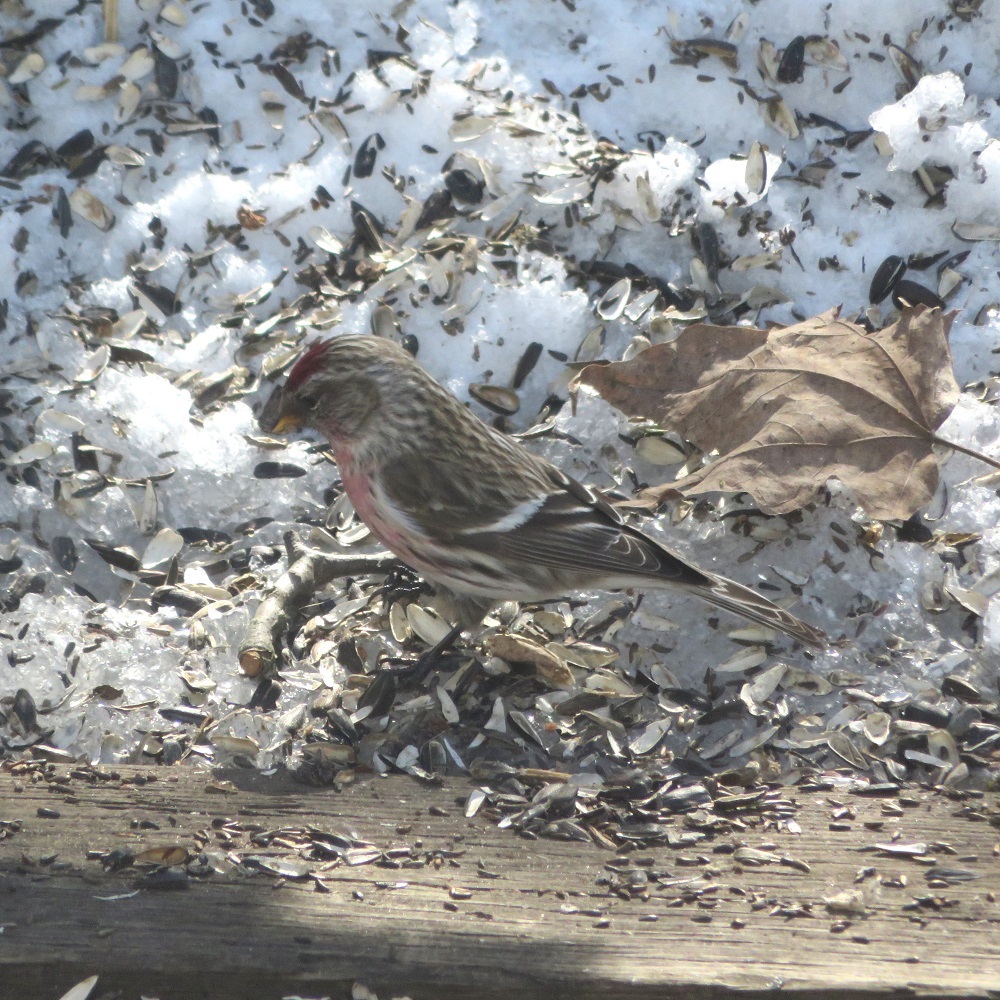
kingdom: Animalia
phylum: Chordata
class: Aves
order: Passeriformes
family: Fringillidae
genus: Acanthis
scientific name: Acanthis flammea
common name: Common redpoll
